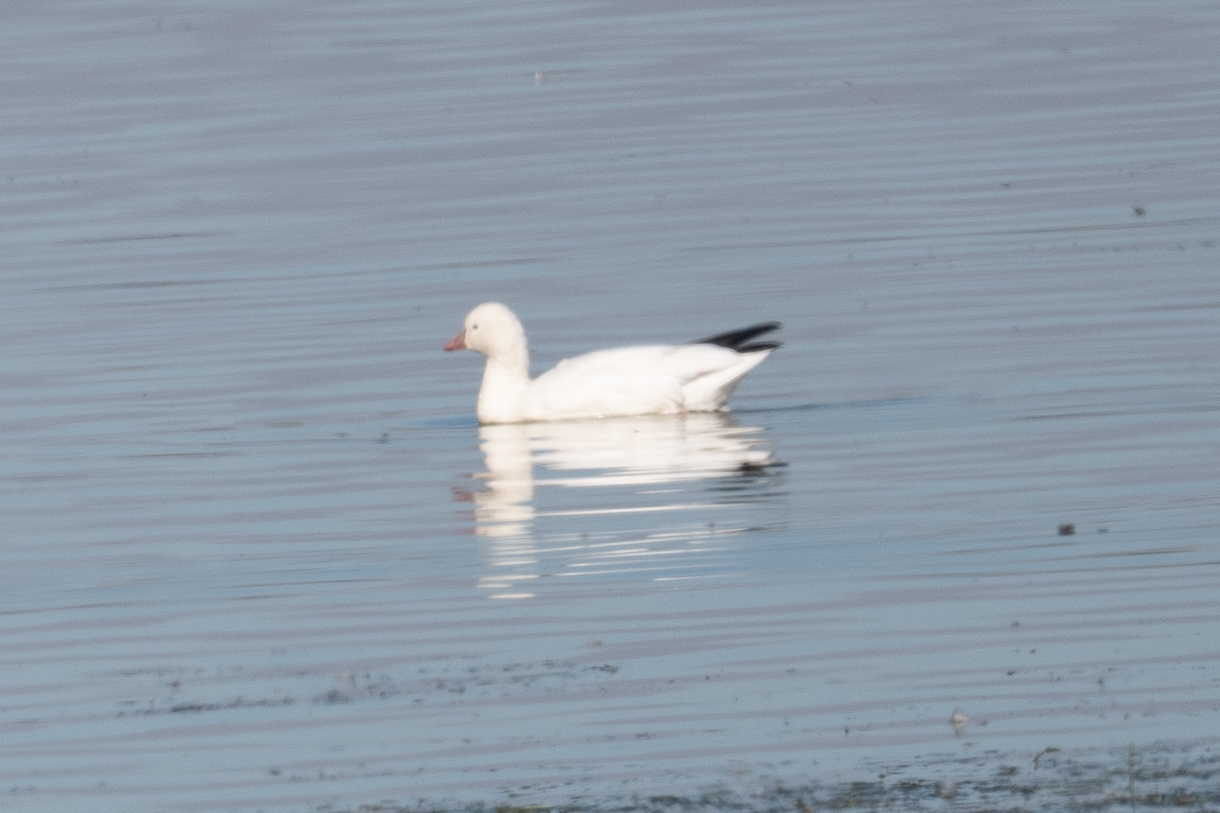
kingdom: Animalia
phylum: Chordata
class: Aves
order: Anseriformes
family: Anatidae
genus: Anser
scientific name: Anser rossii
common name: Ross's goose
